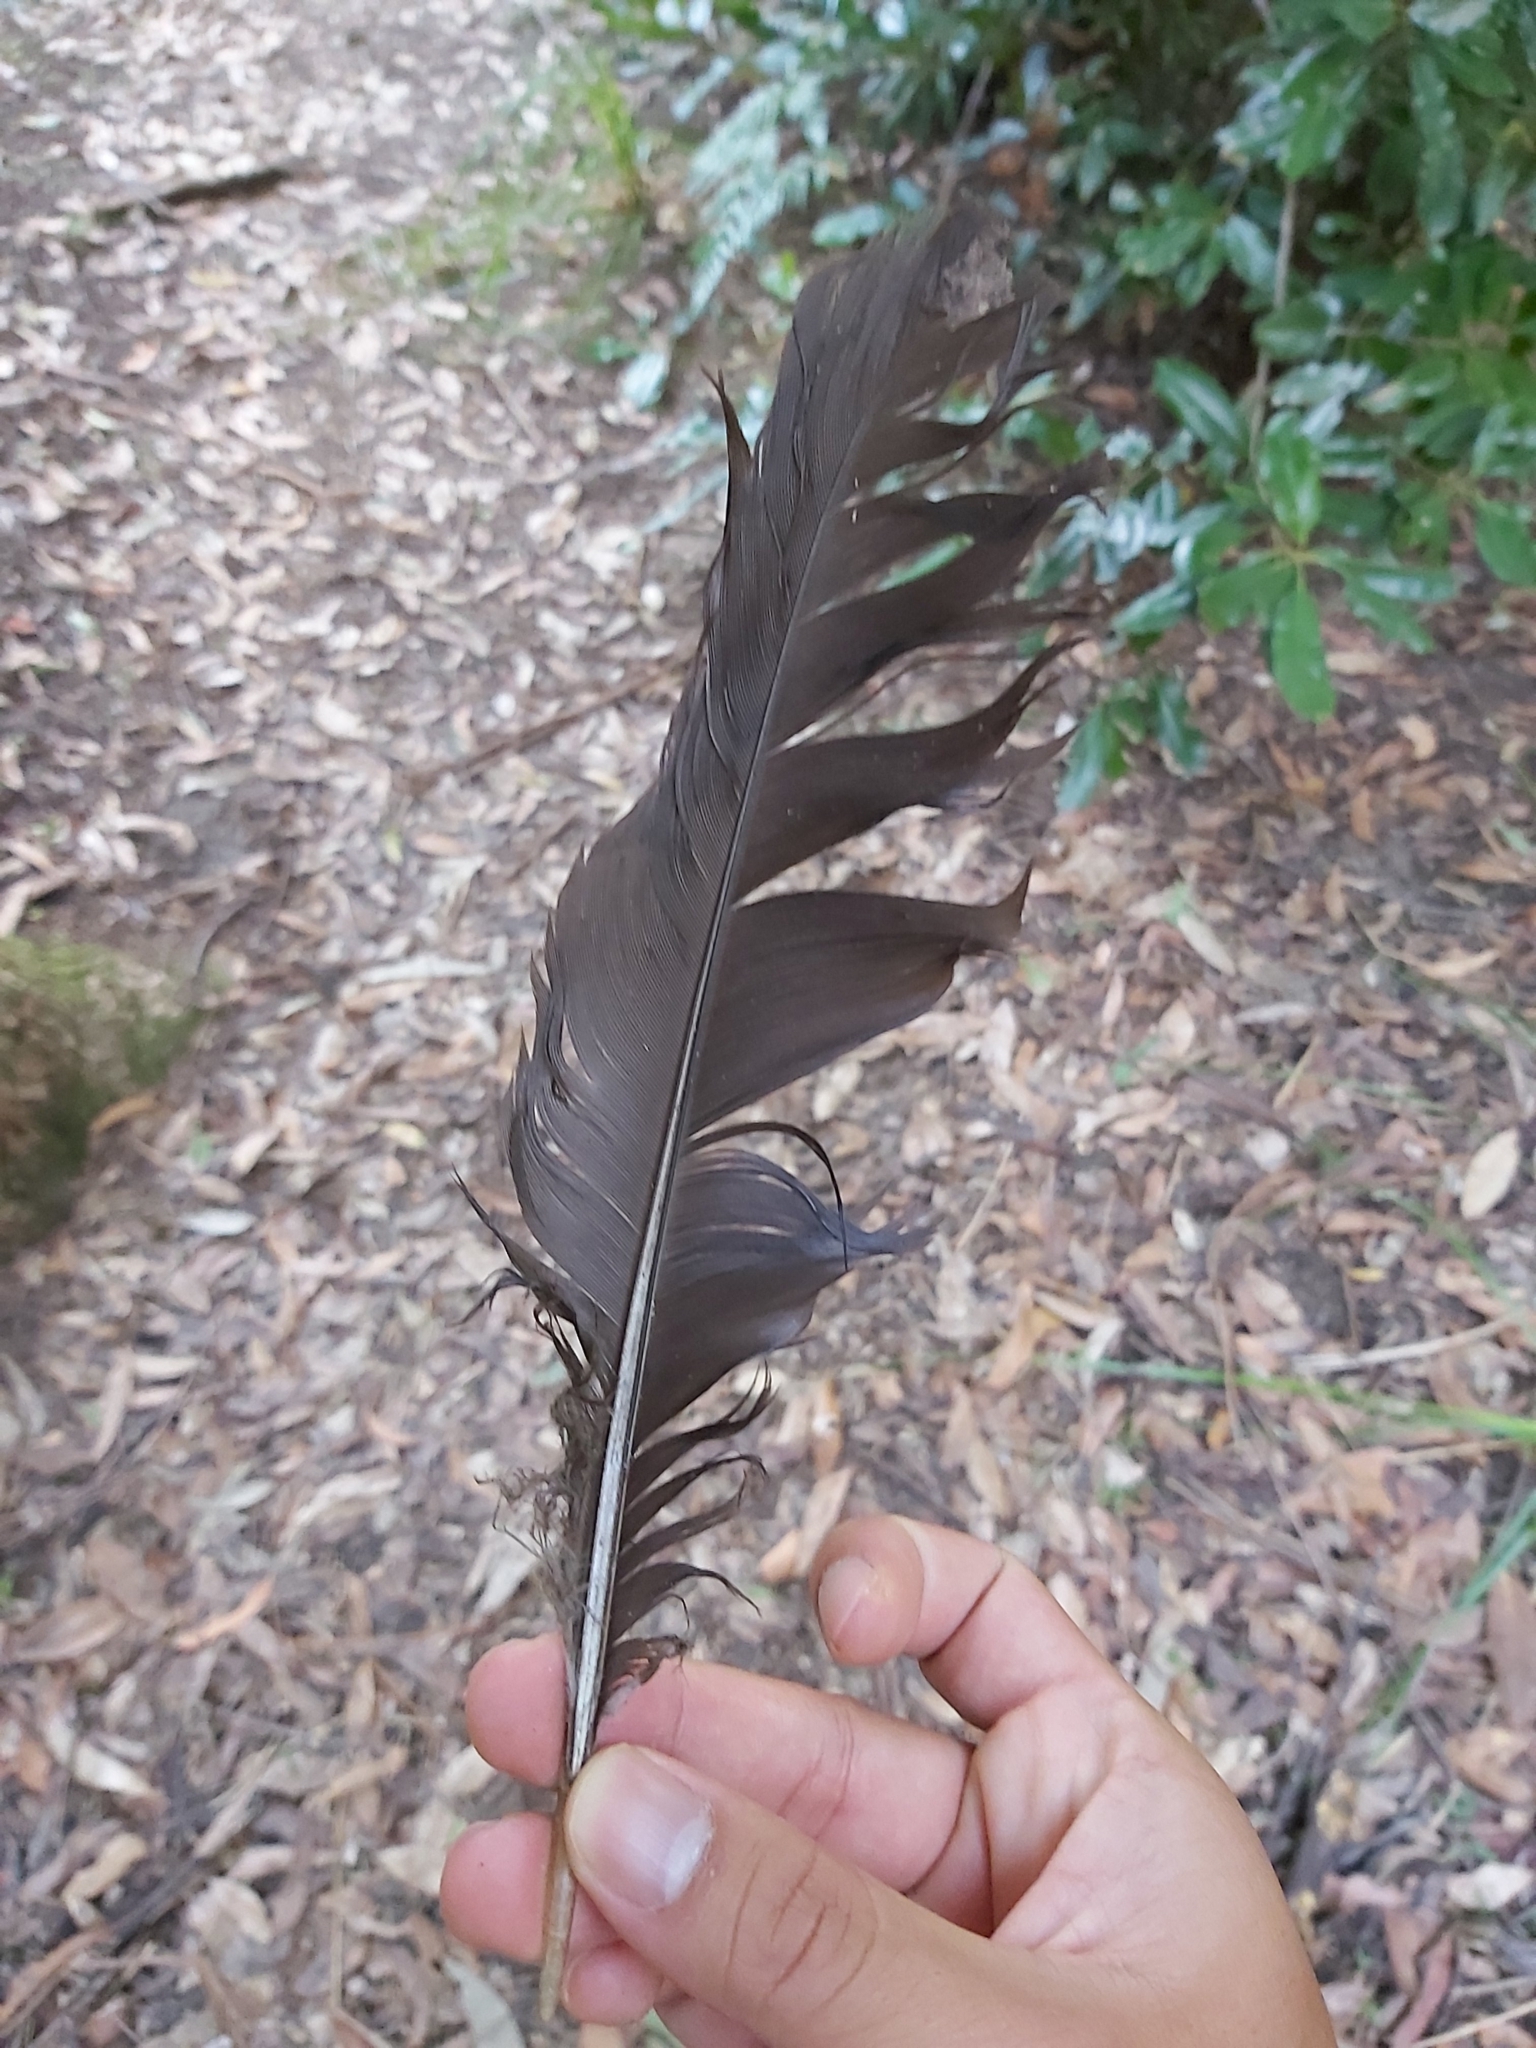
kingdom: Animalia
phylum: Chordata
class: Aves
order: Galliformes
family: Megapodiidae
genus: Alectura
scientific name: Alectura lathami
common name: Australian brushturkey
